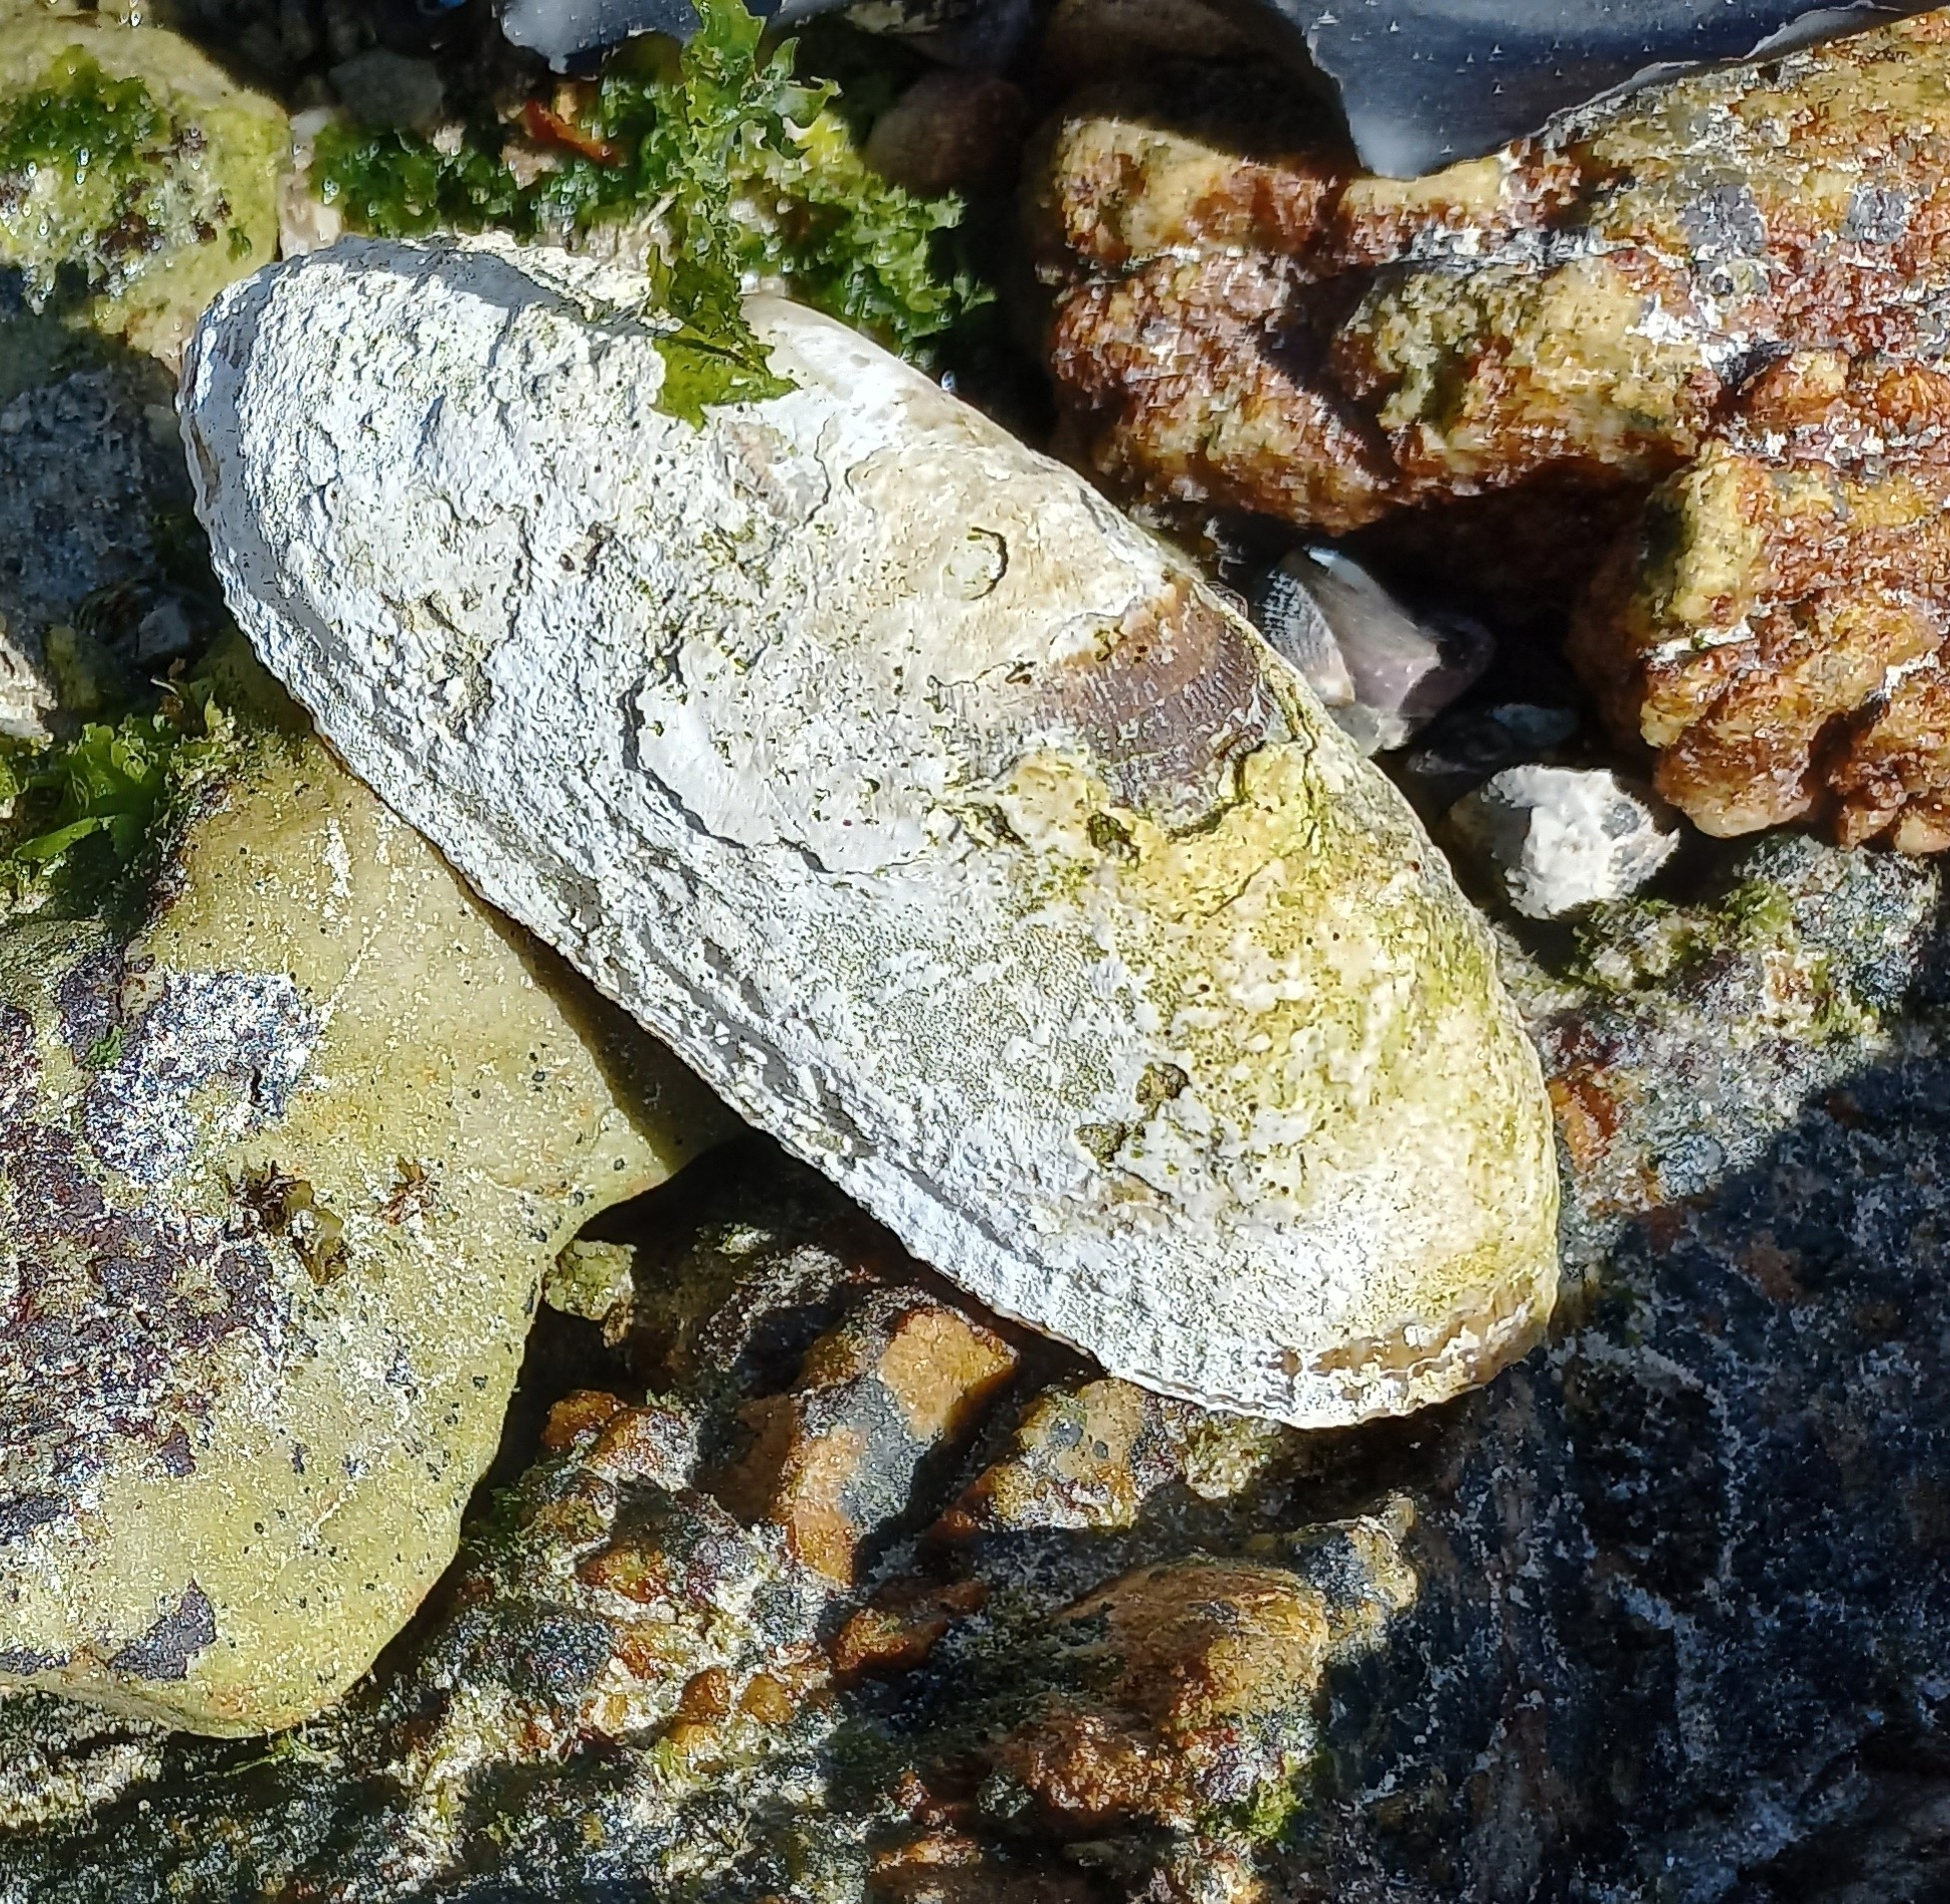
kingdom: Animalia
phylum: Mollusca
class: Gastropoda
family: Patellidae
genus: Cymbula
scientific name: Cymbula compressa
